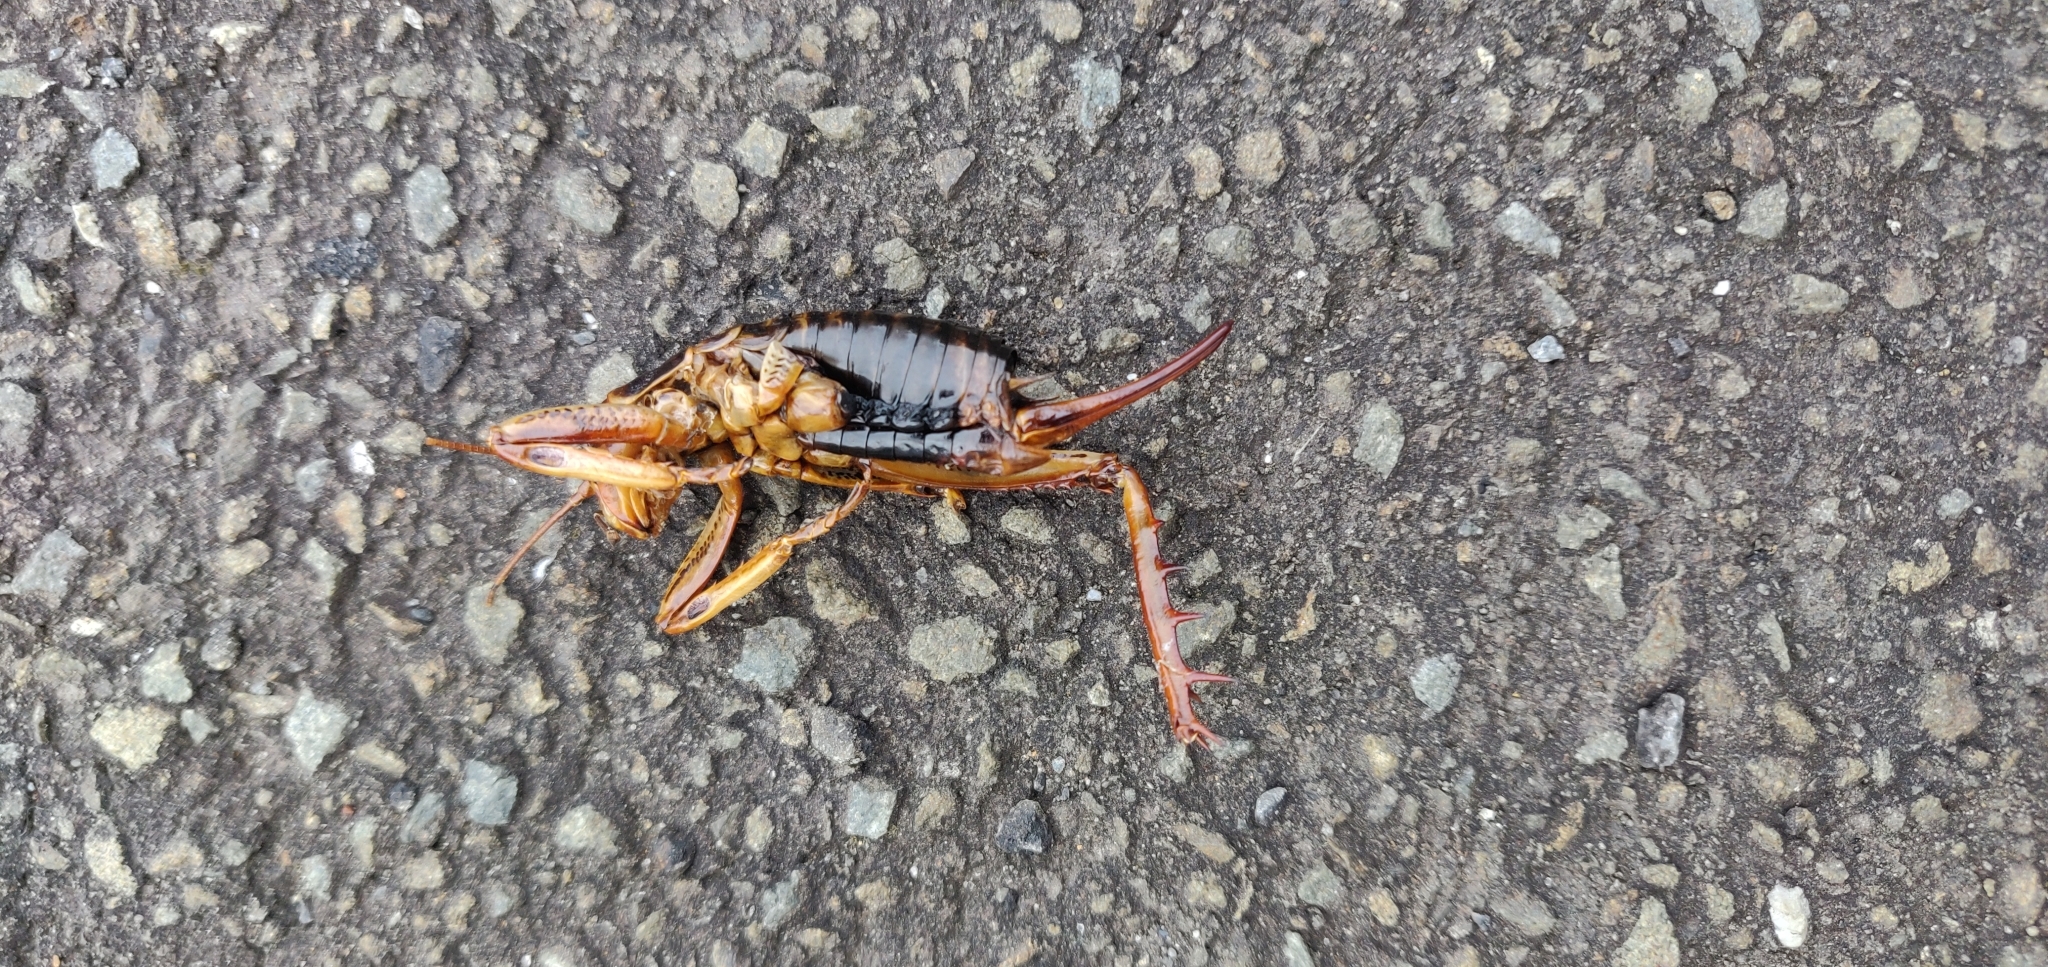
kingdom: Animalia
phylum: Arthropoda
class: Insecta
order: Orthoptera
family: Anostostomatidae
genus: Hemideina
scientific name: Hemideina crassidens
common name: Wellington tree weta
